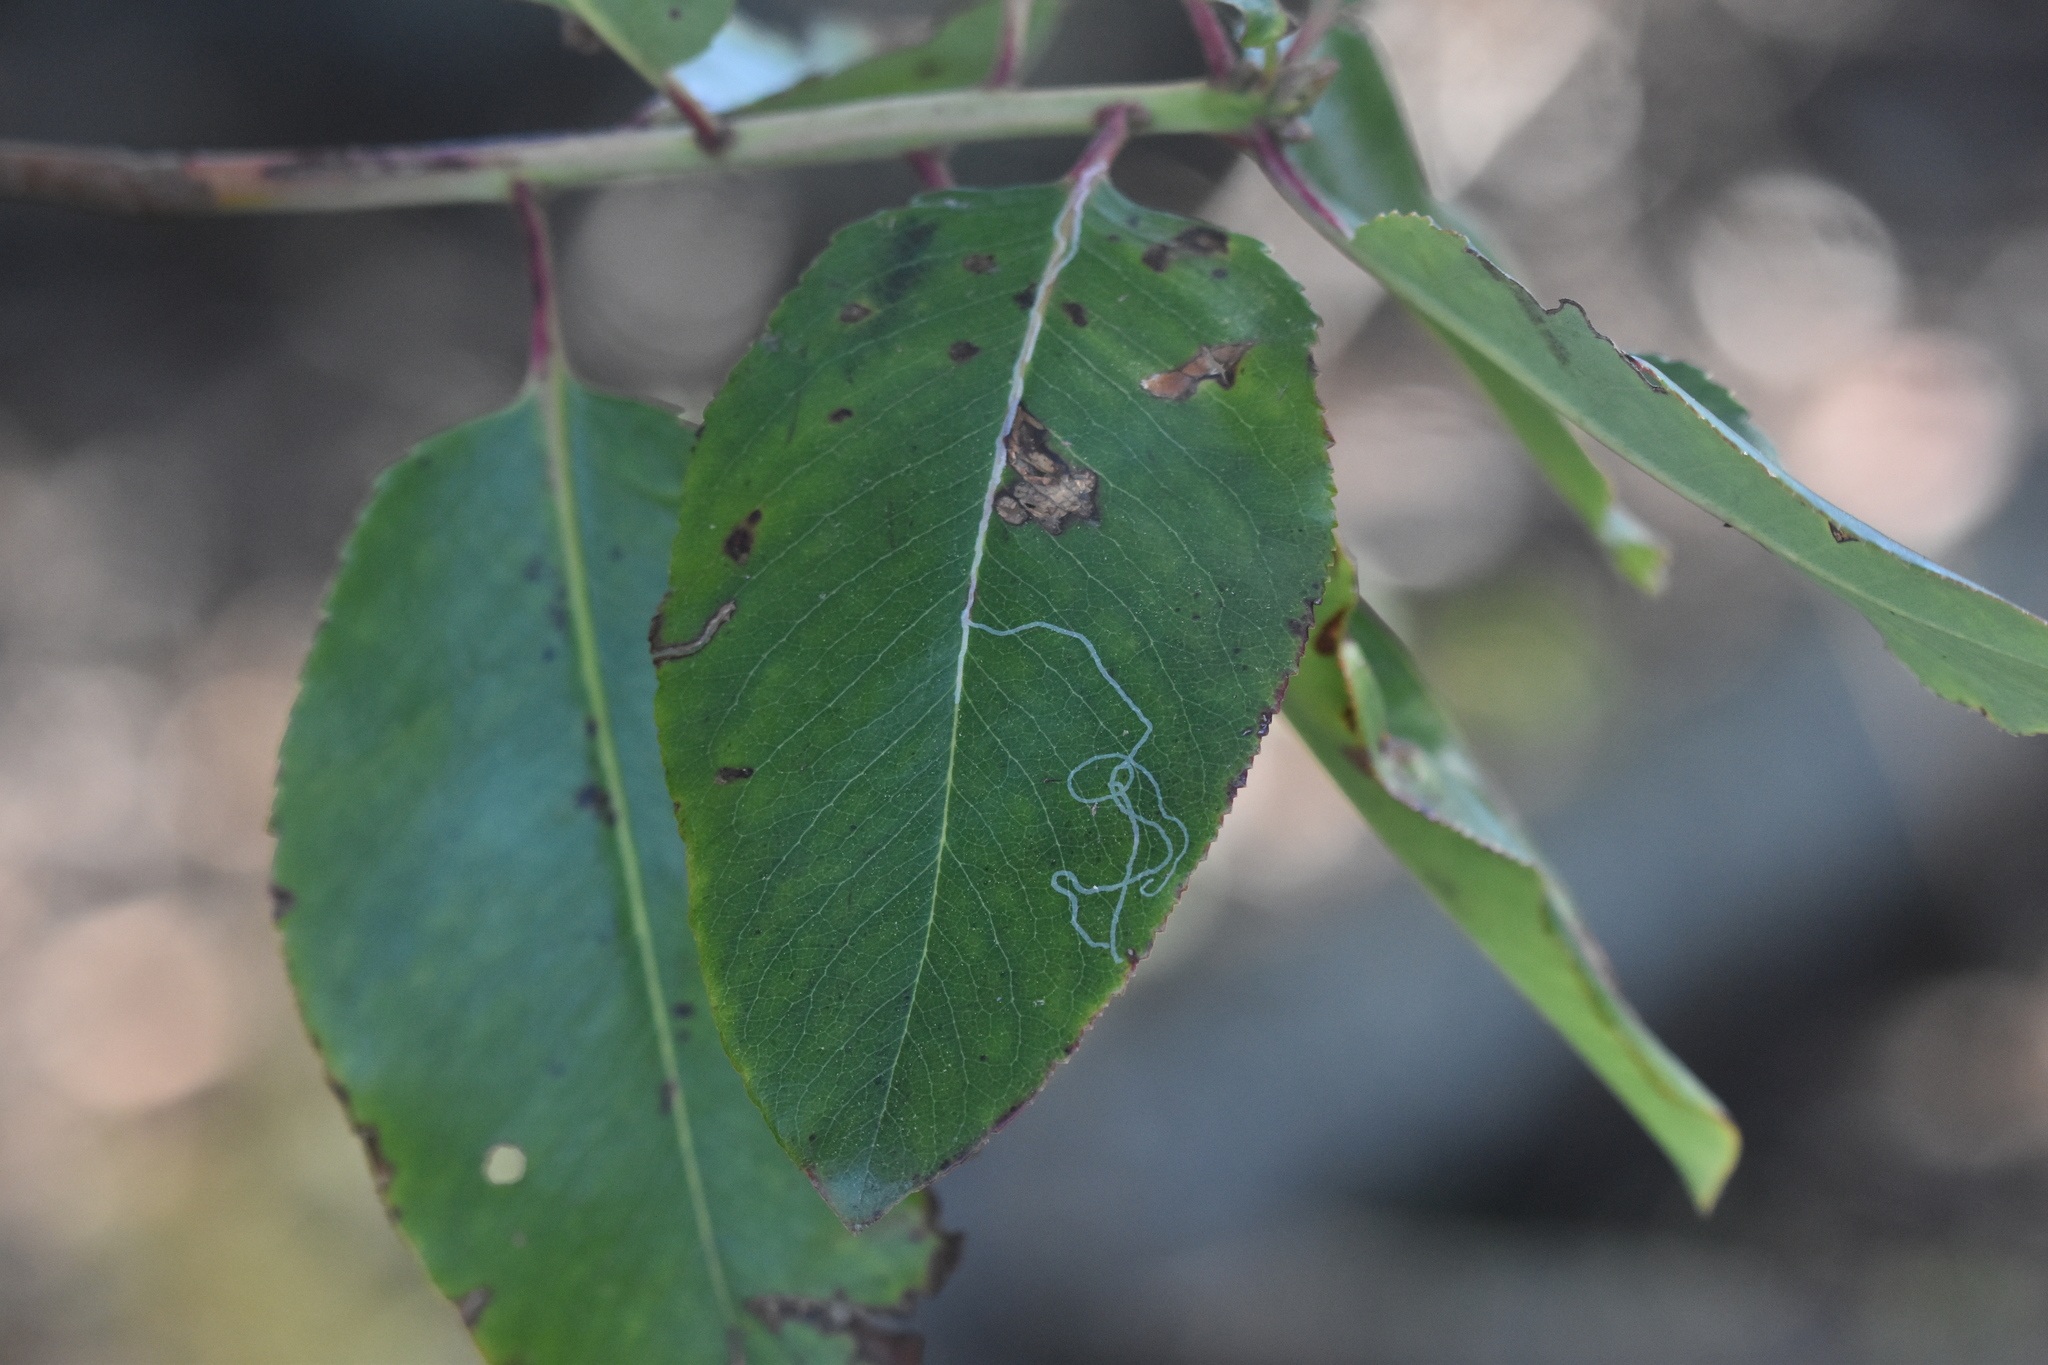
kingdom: Animalia
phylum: Arthropoda
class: Insecta
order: Lepidoptera
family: Gracillariidae
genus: Marmara
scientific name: Marmara arbutiella
